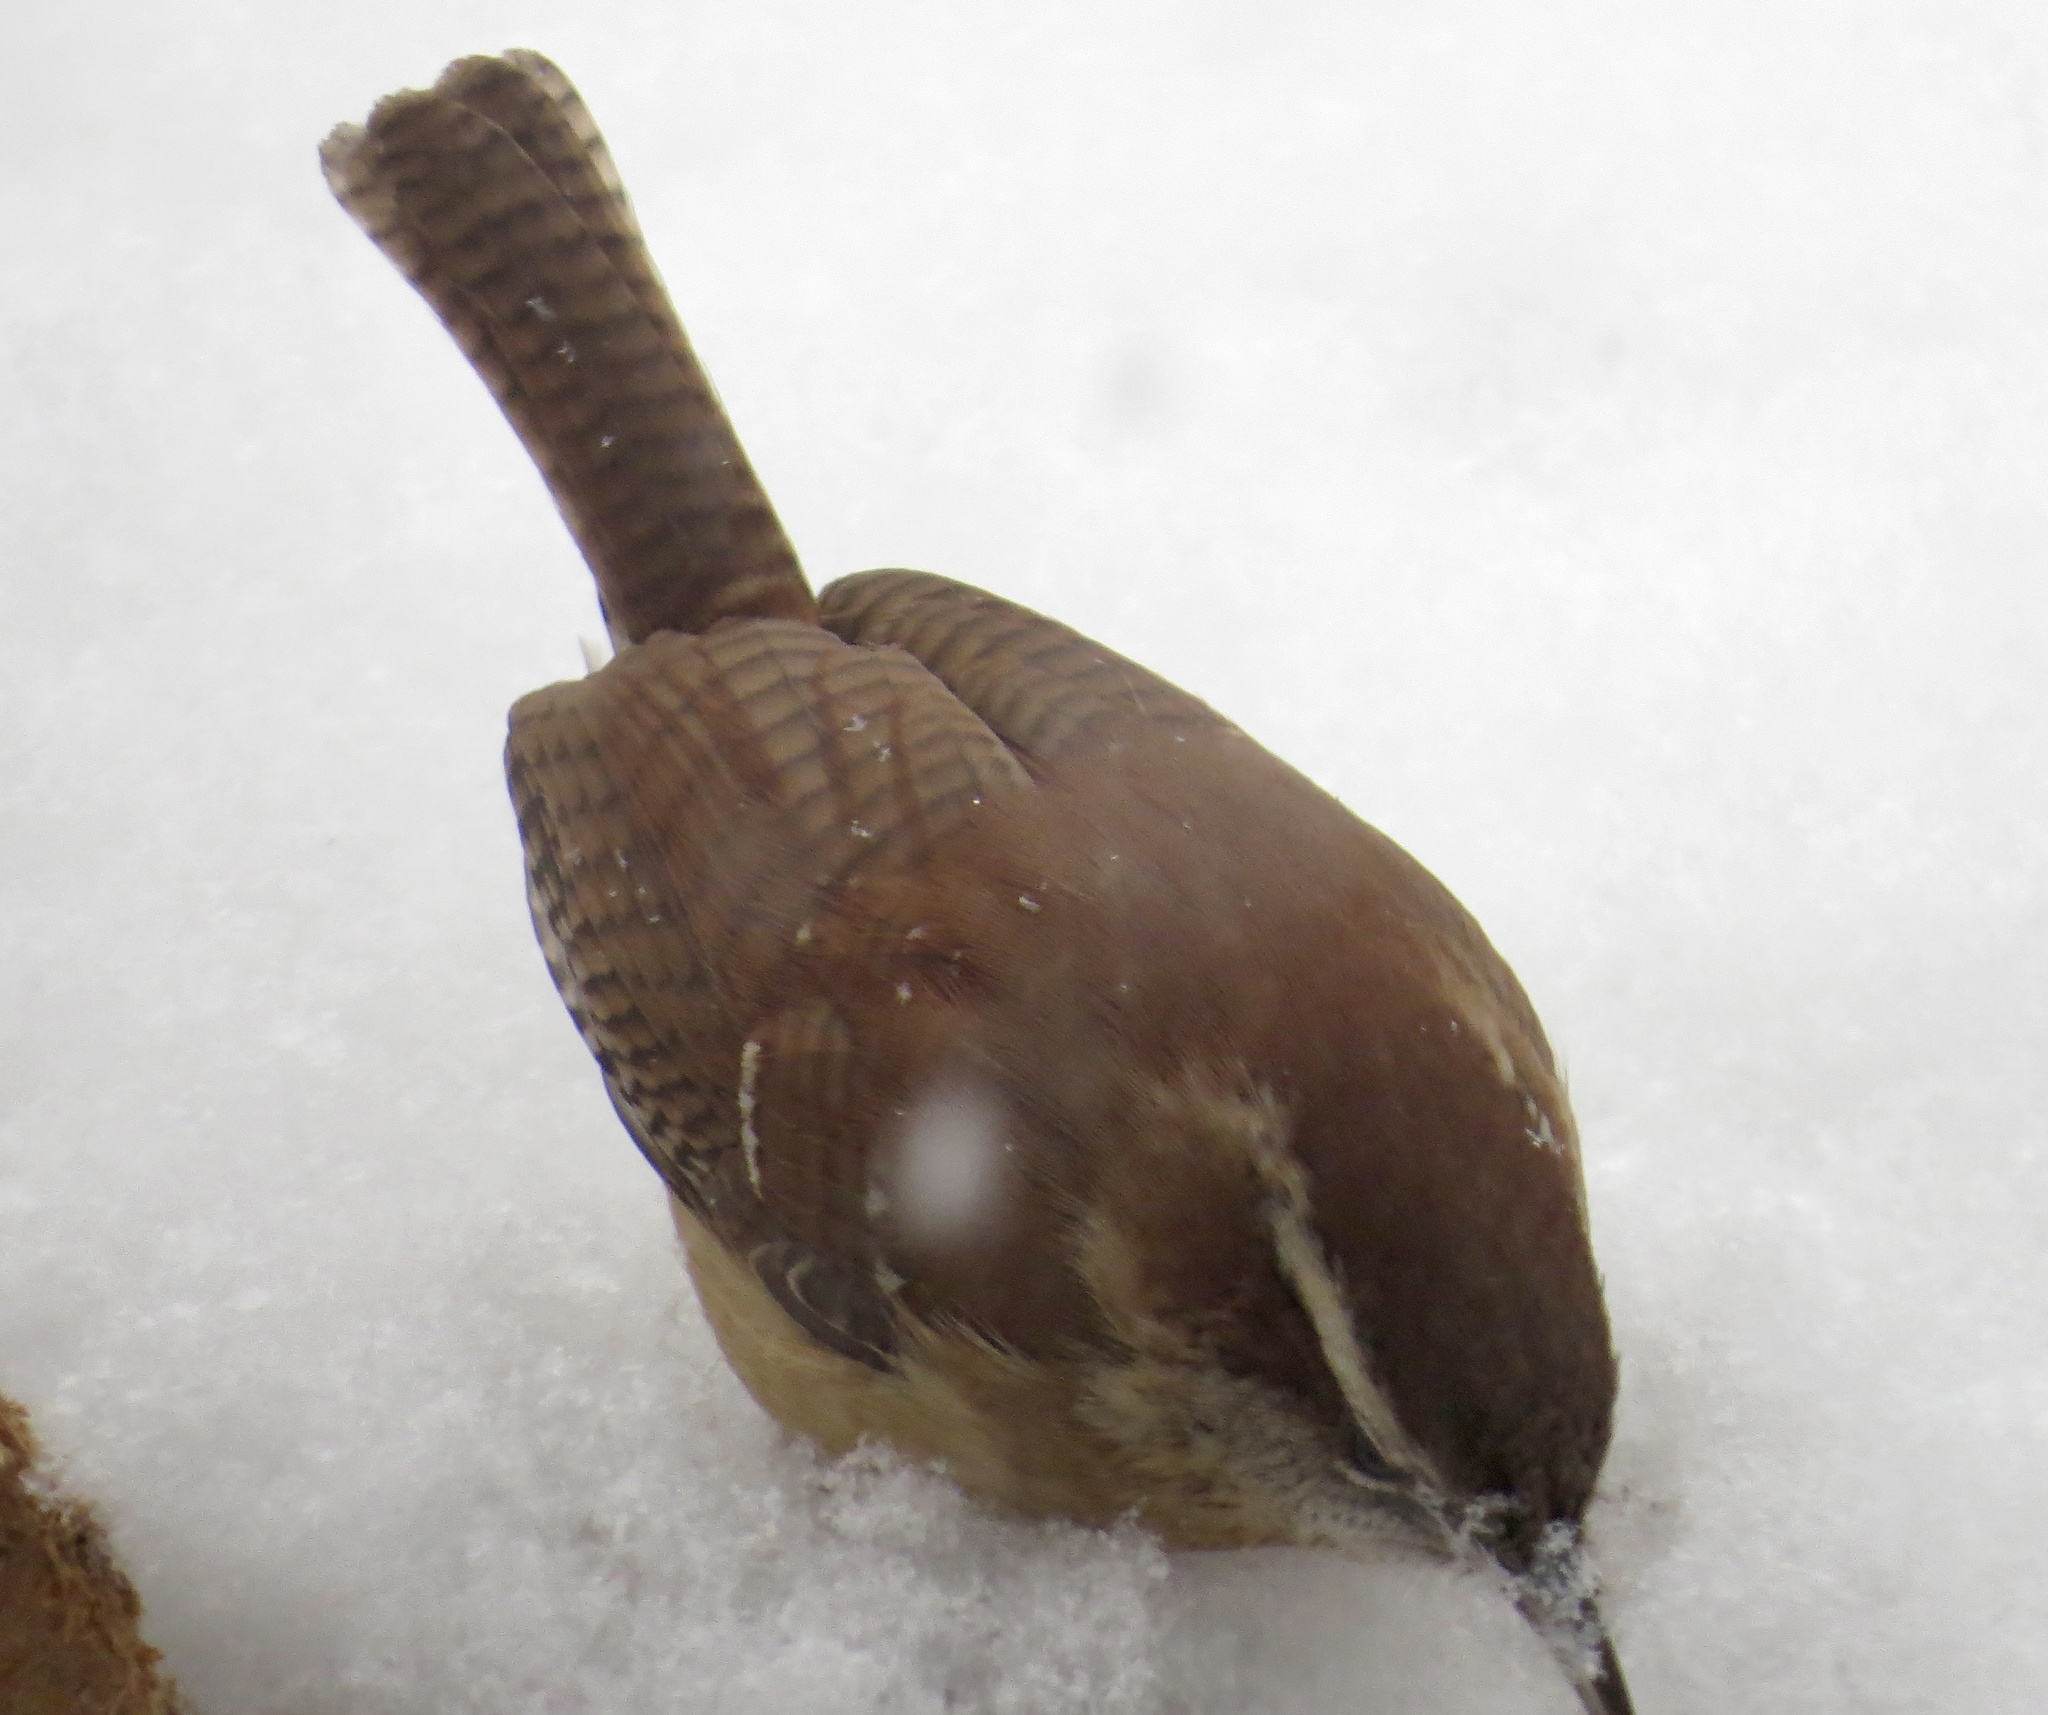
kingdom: Animalia
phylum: Chordata
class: Aves
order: Passeriformes
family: Troglodytidae
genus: Thryothorus
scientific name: Thryothorus ludovicianus
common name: Carolina wren
